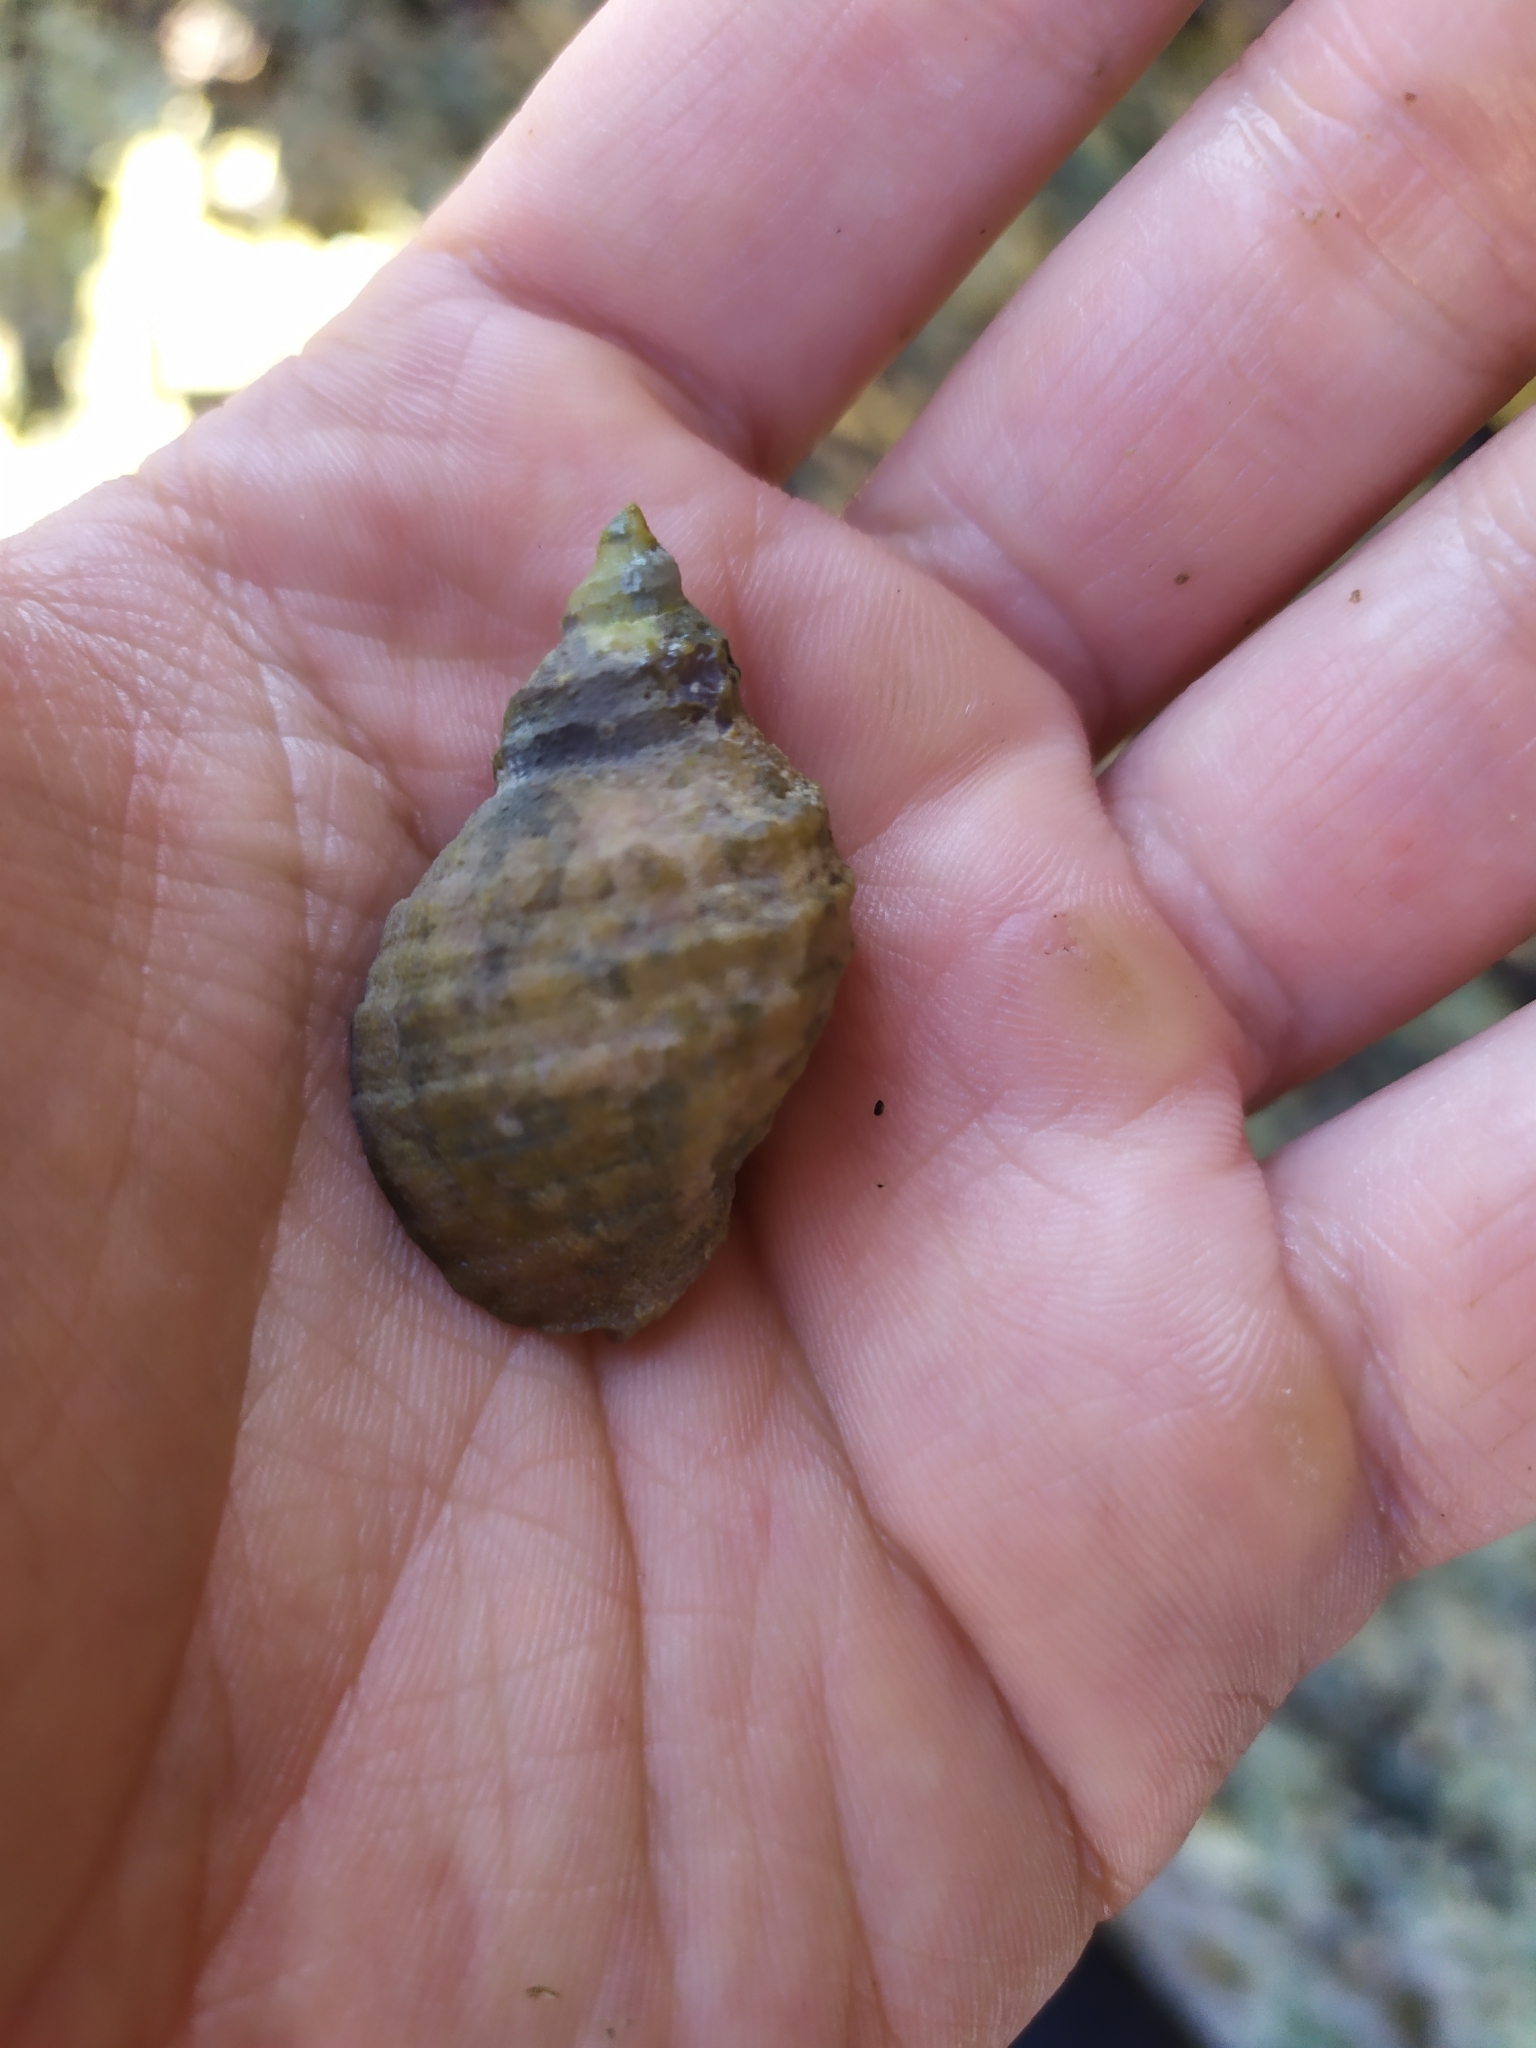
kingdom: Animalia
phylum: Mollusca
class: Gastropoda
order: Neogastropoda
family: Muricidae
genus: Dicathais
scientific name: Dicathais orbita
